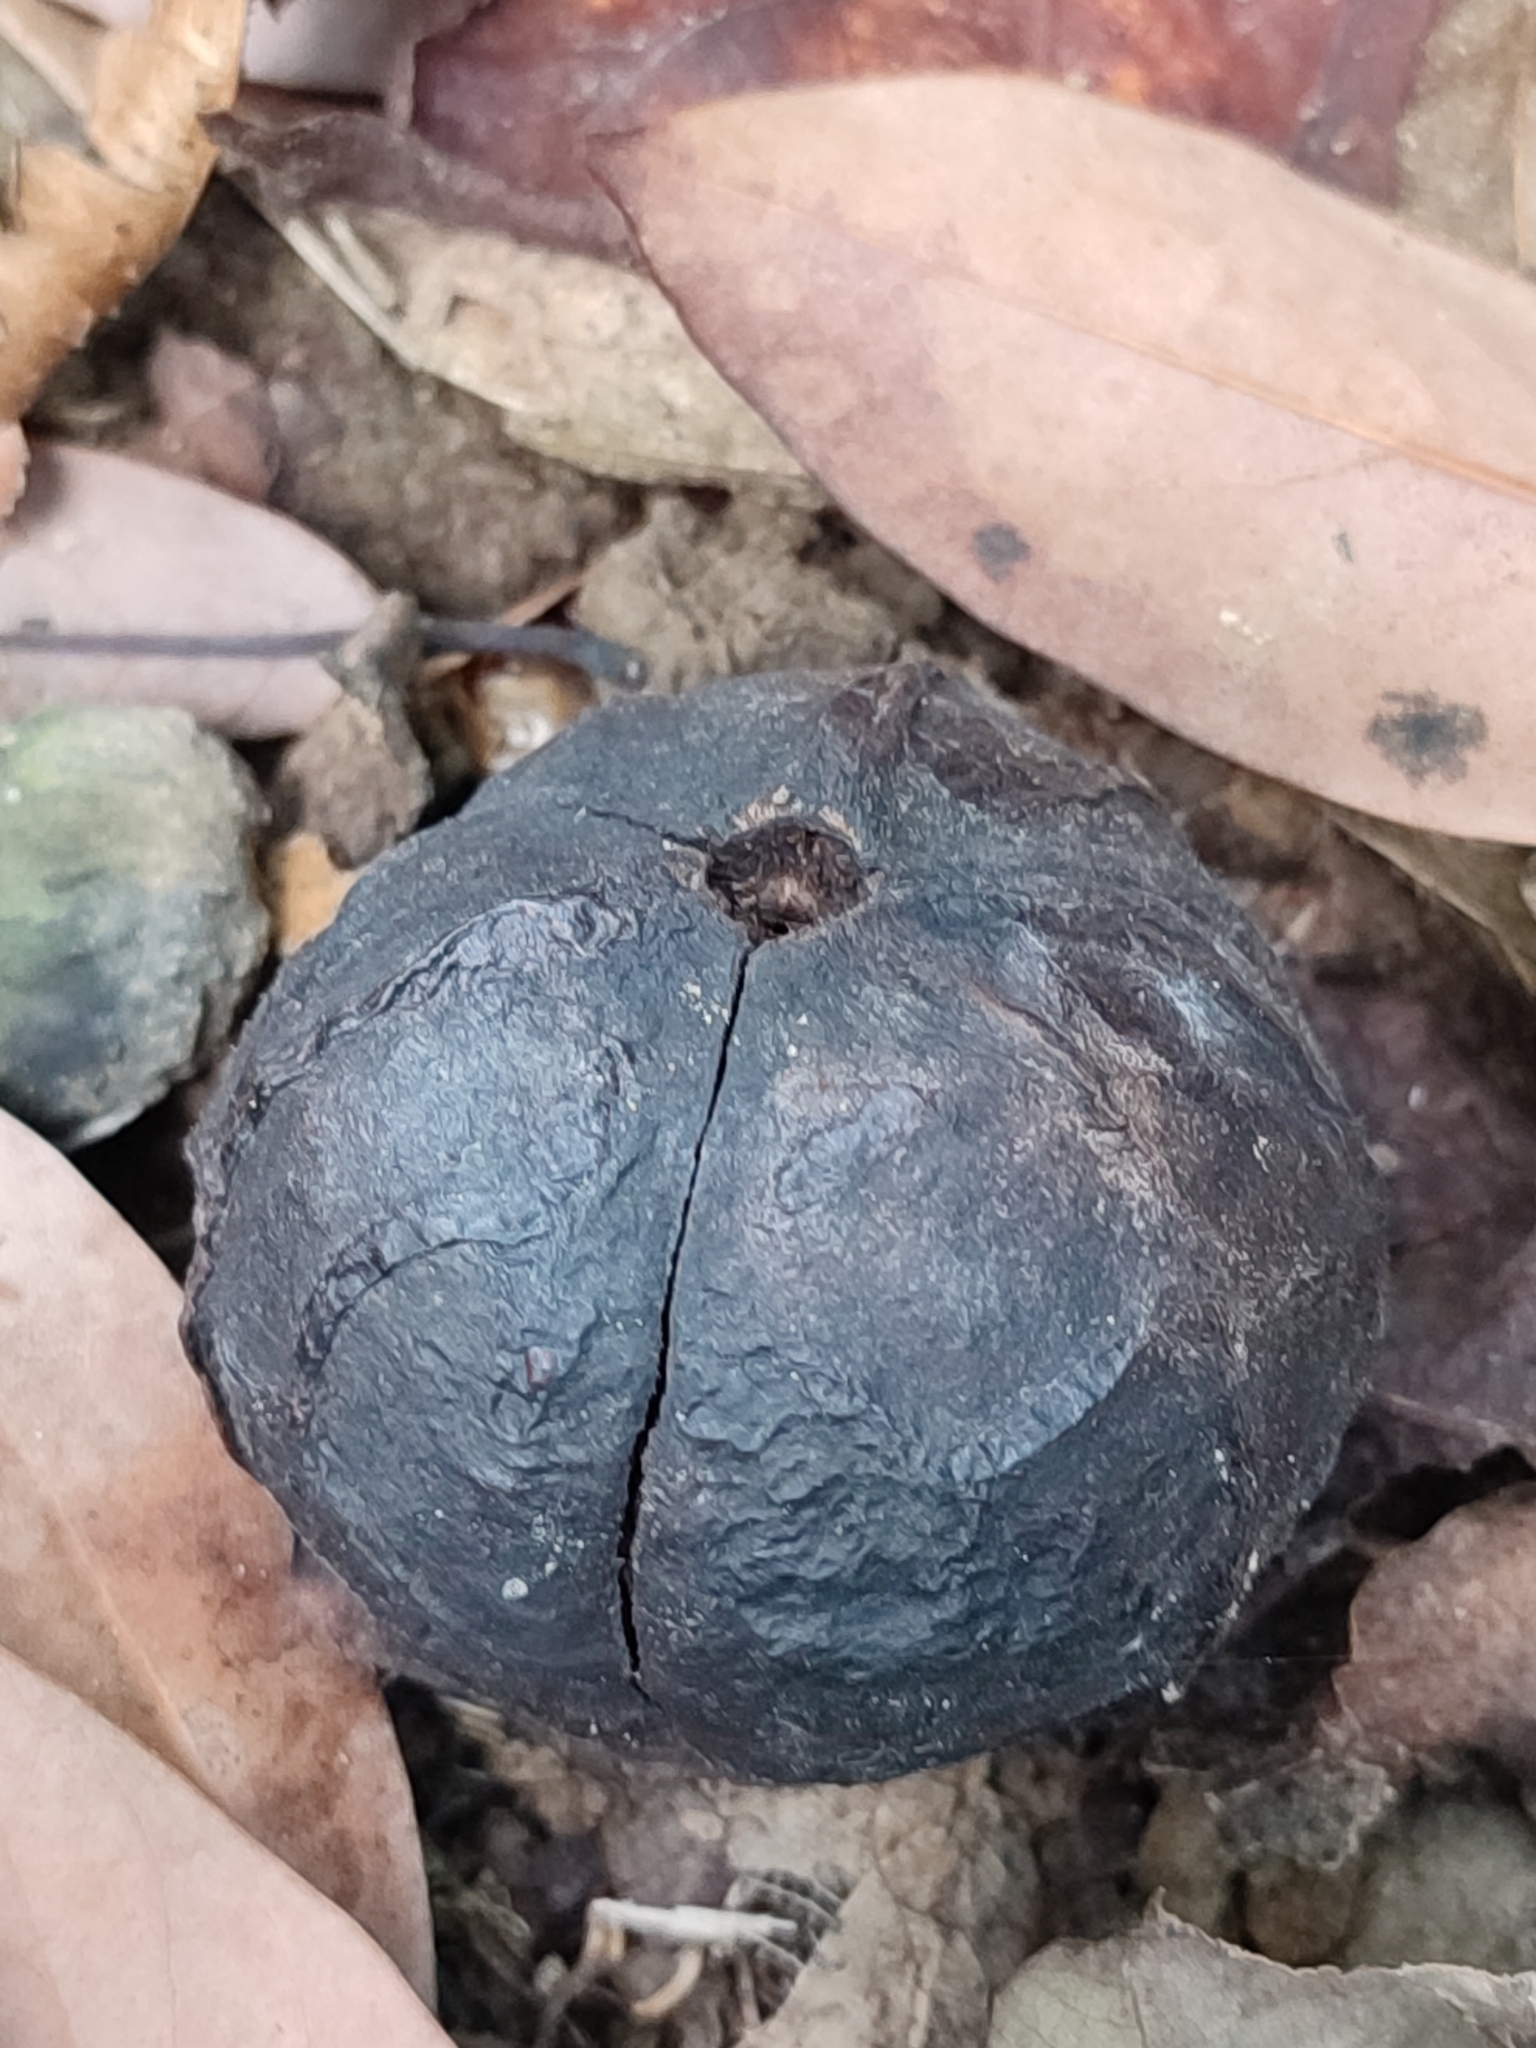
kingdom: Plantae
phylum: Tracheophyta
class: Magnoliopsida
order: Malpighiales
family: Euphorbiaceae
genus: Vernicia
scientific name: Vernicia montana
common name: Mu oil tree
